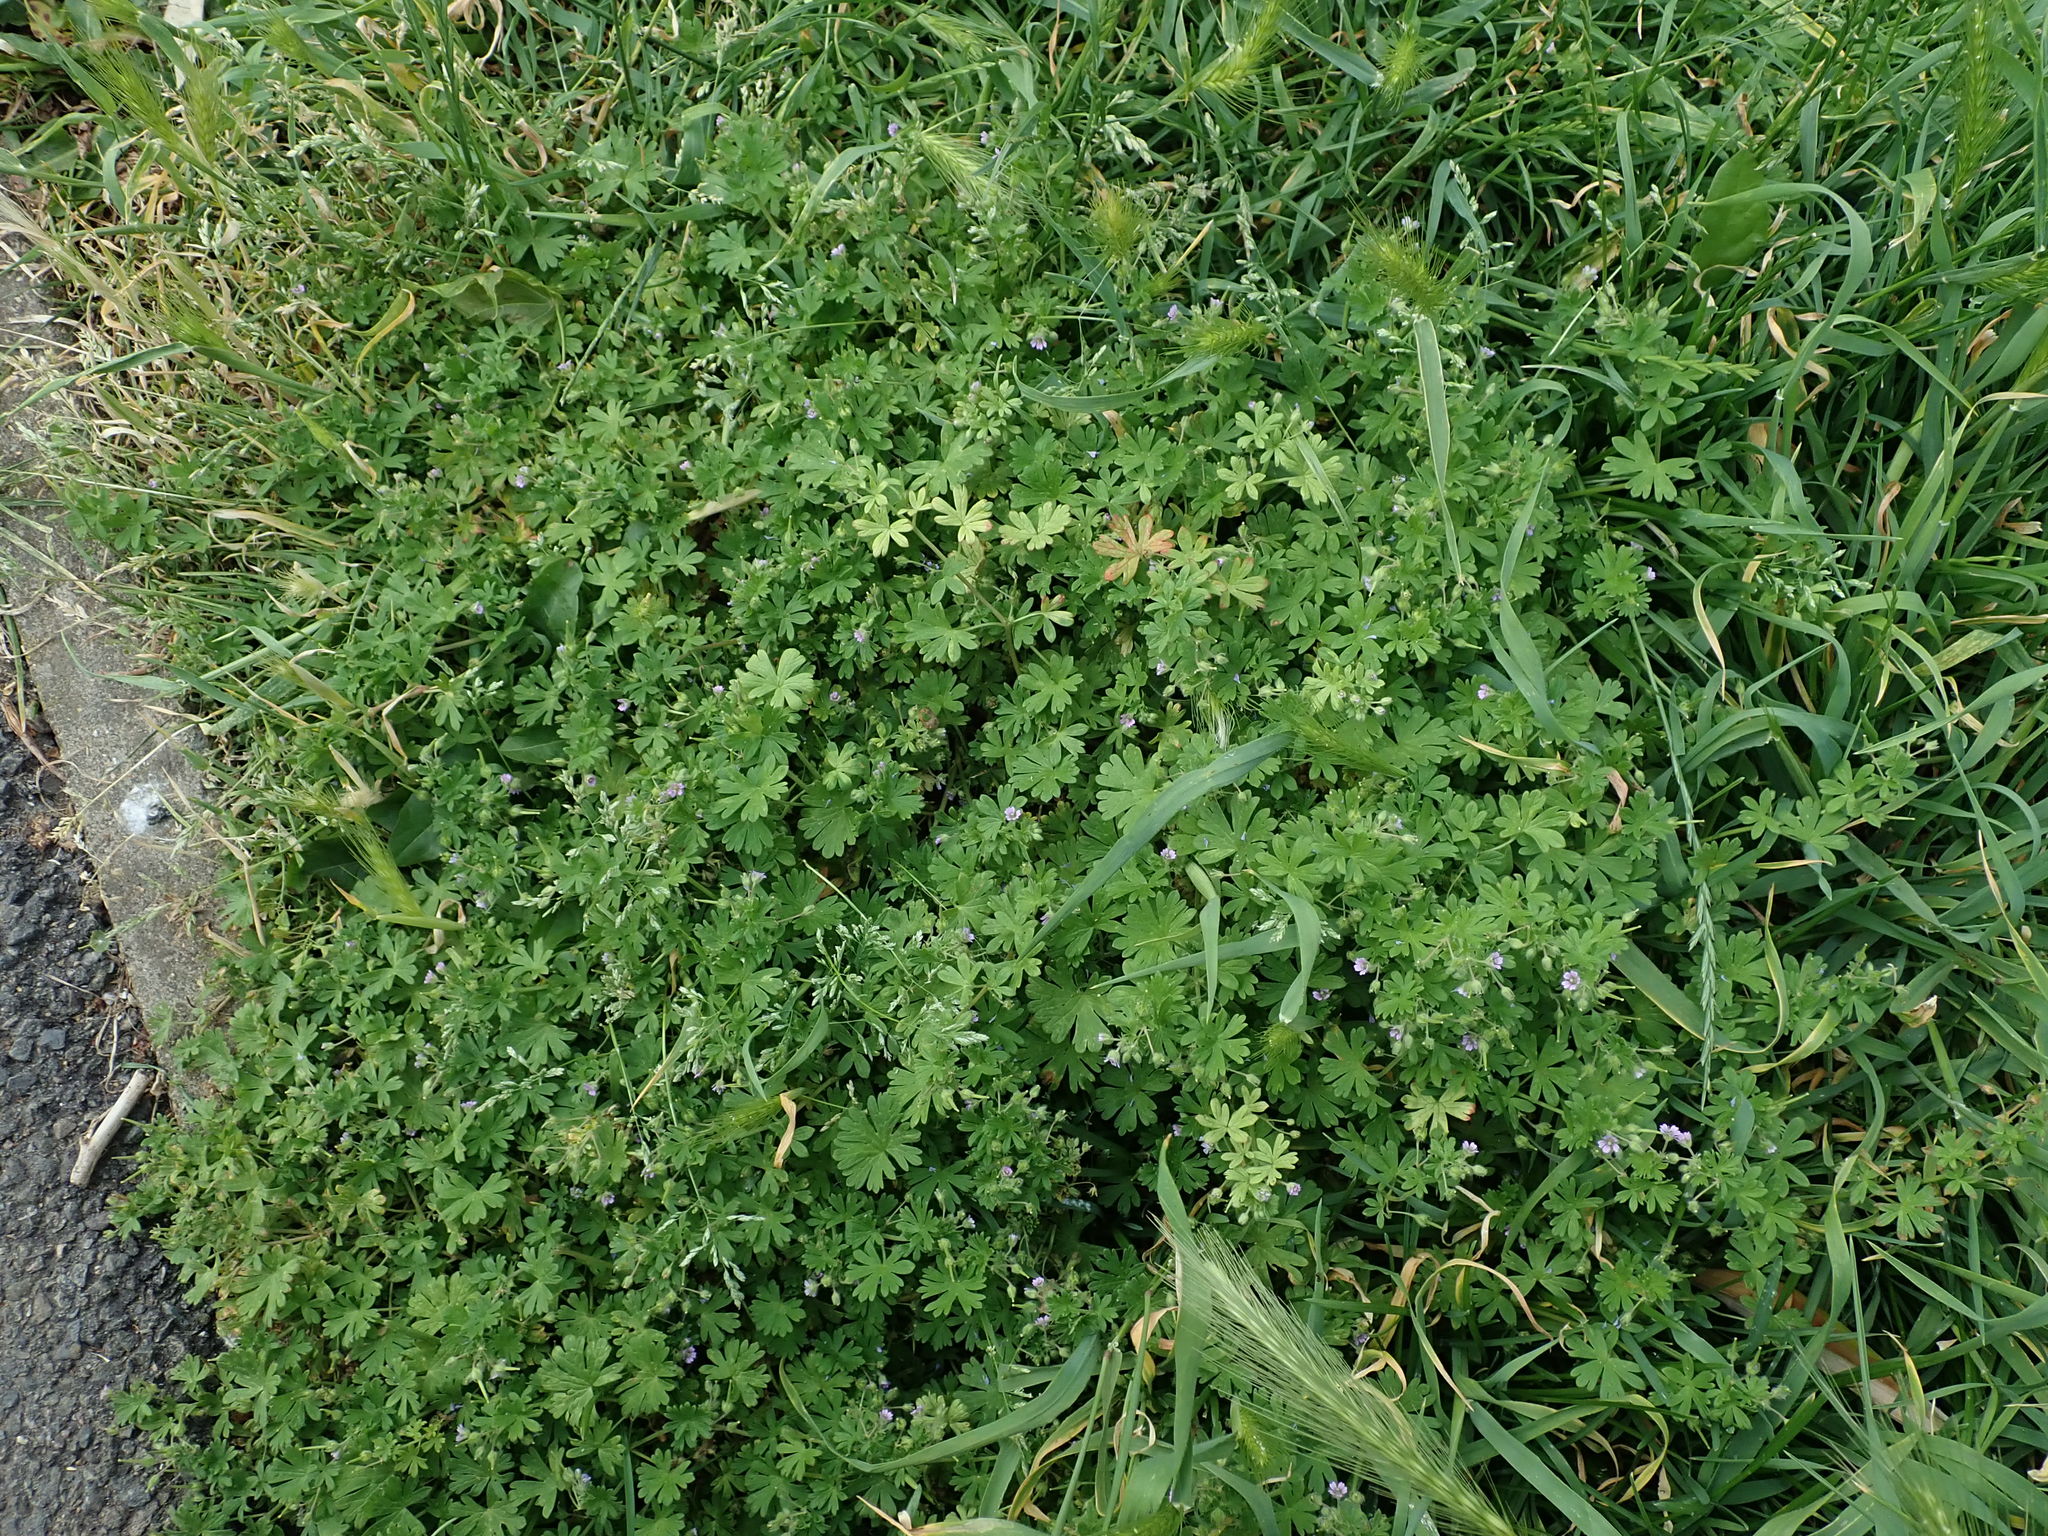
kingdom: Plantae
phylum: Tracheophyta
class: Magnoliopsida
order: Geraniales
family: Geraniaceae
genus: Geranium
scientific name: Geranium pusillum
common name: Small geranium
